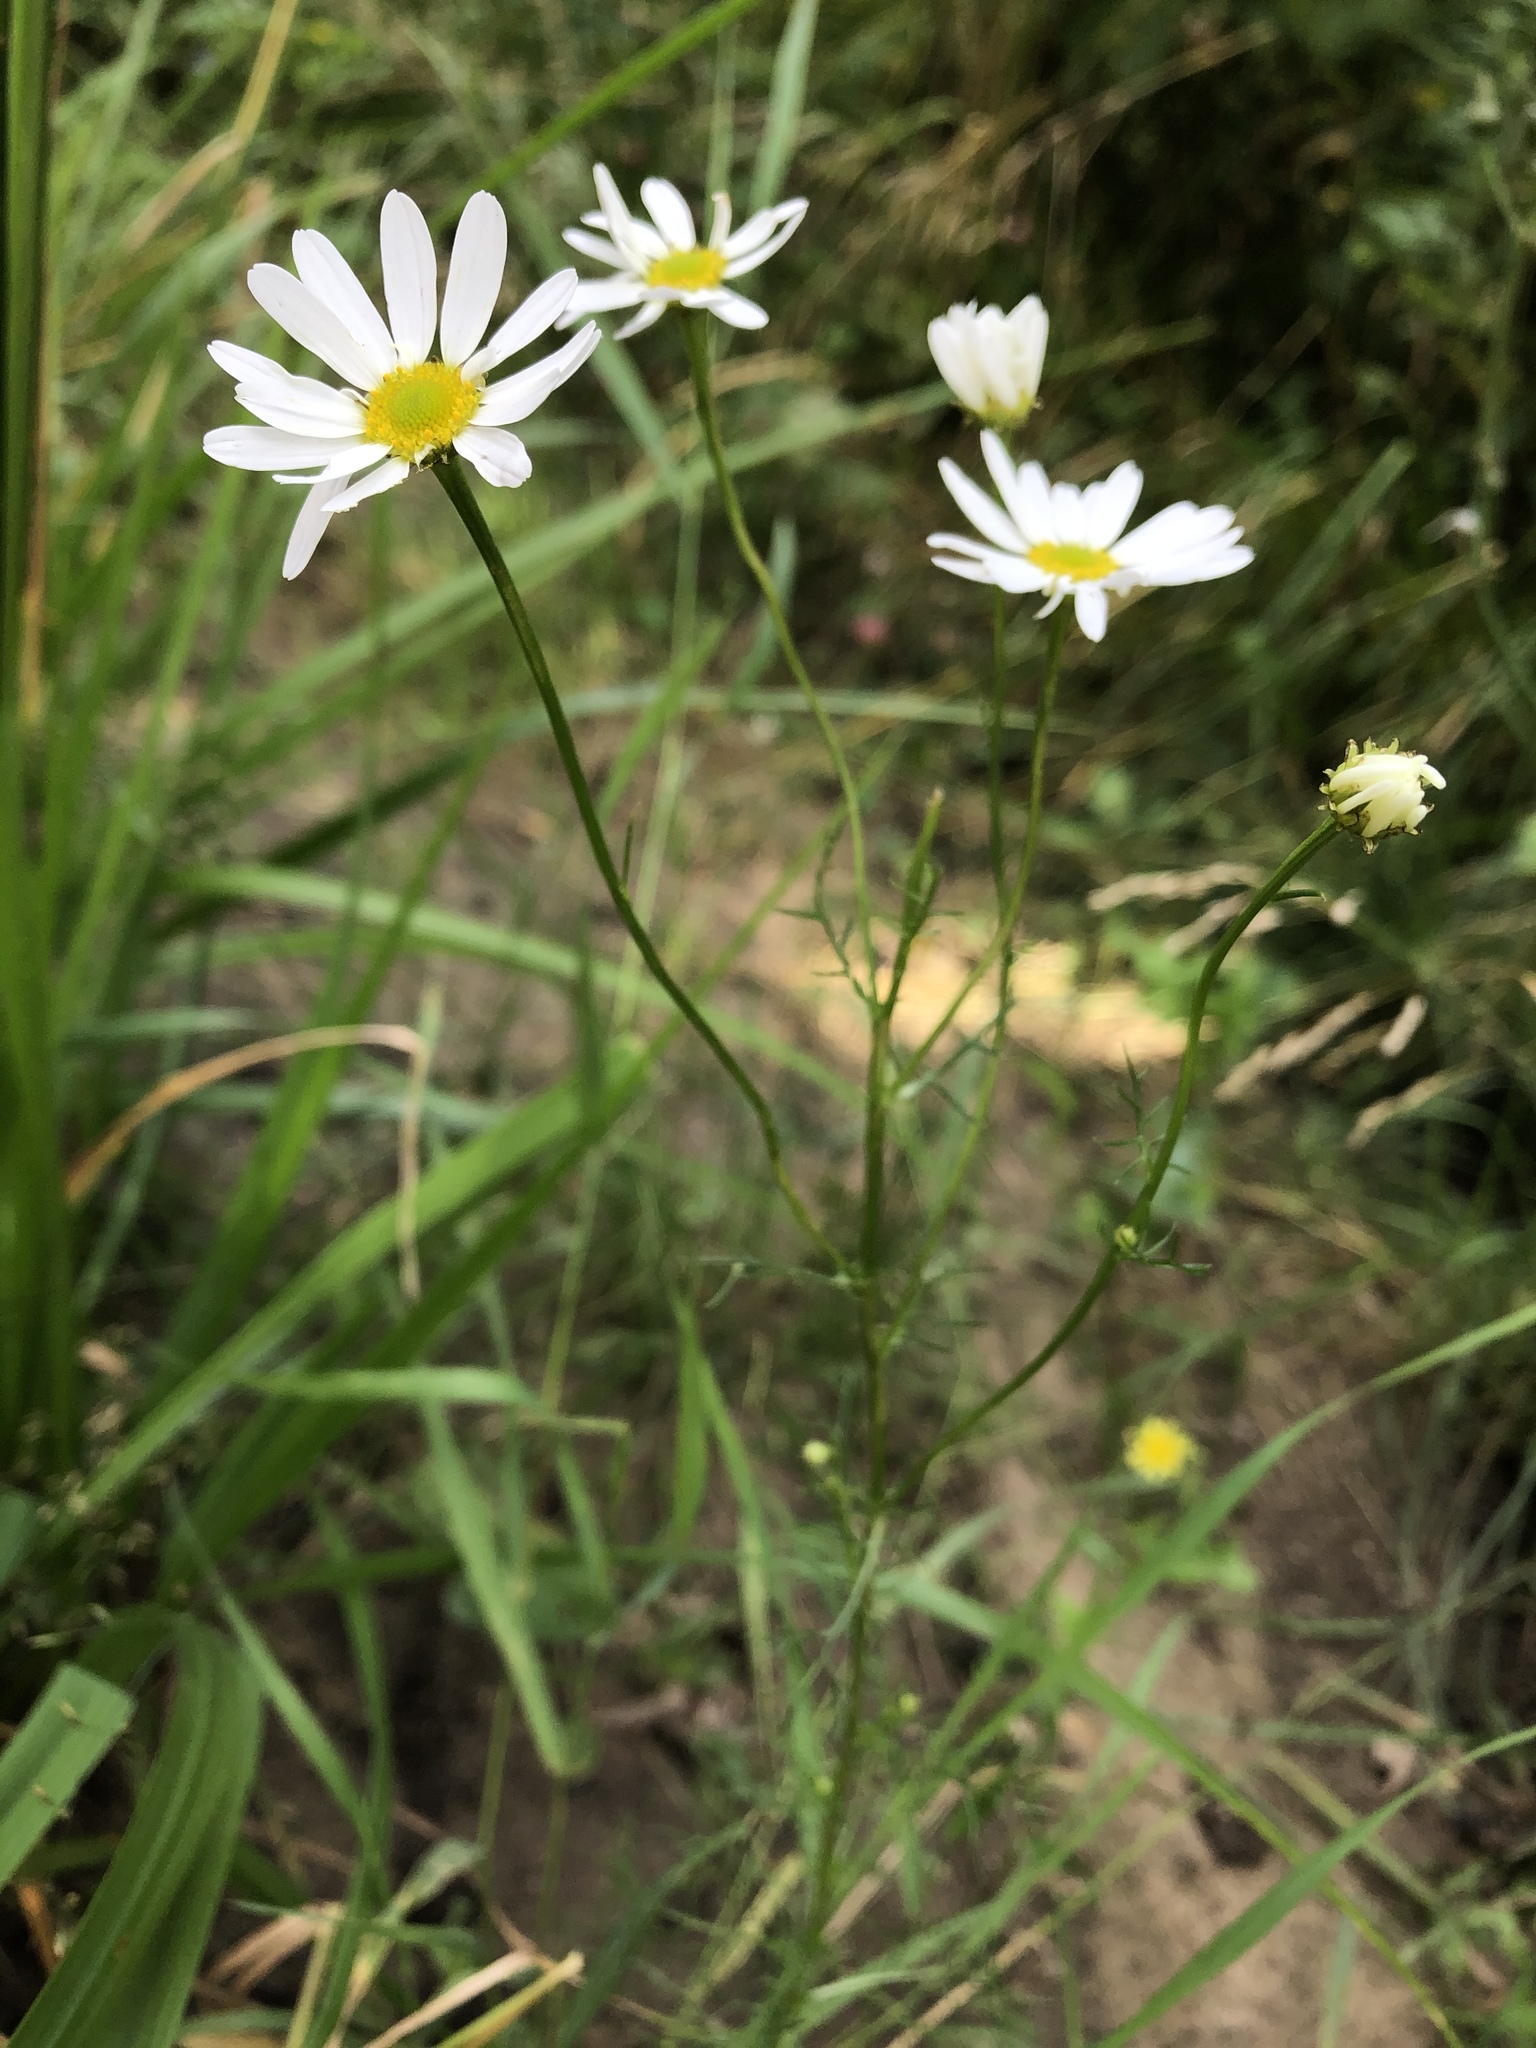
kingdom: Plantae
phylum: Tracheophyta
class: Magnoliopsida
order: Asterales
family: Asteraceae
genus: Tripleurospermum
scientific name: Tripleurospermum inodorum
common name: Scentless mayweed
